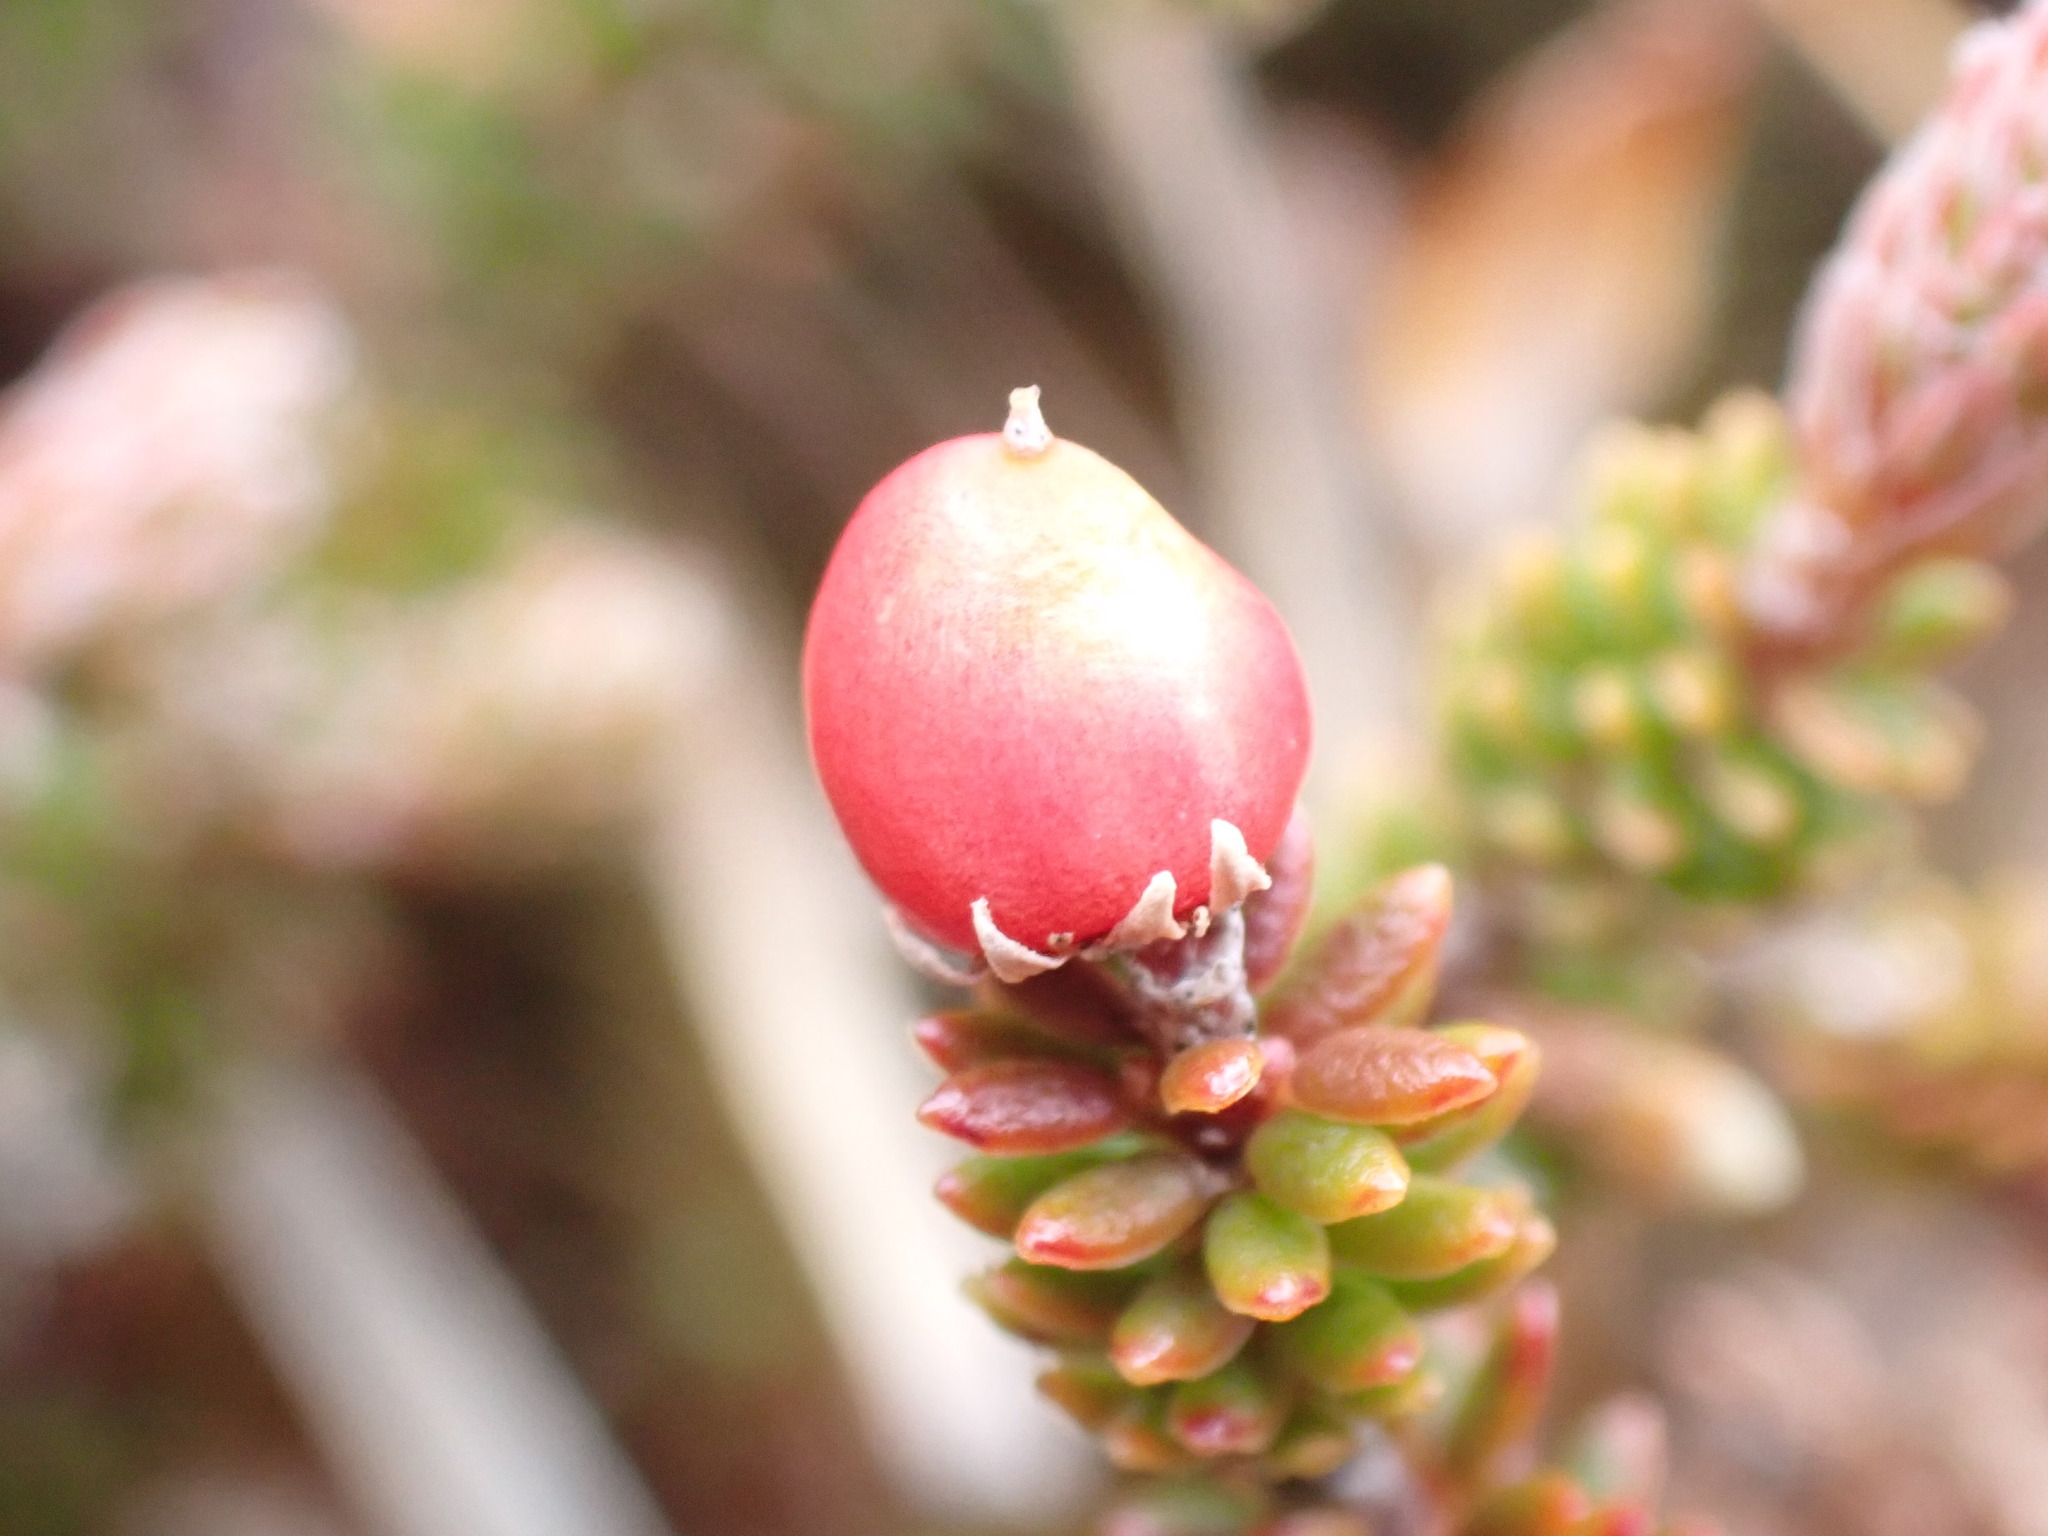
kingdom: Plantae
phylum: Tracheophyta
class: Magnoliopsida
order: Ericales
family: Ericaceae
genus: Androstoma
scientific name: Androstoma empetrifolia
